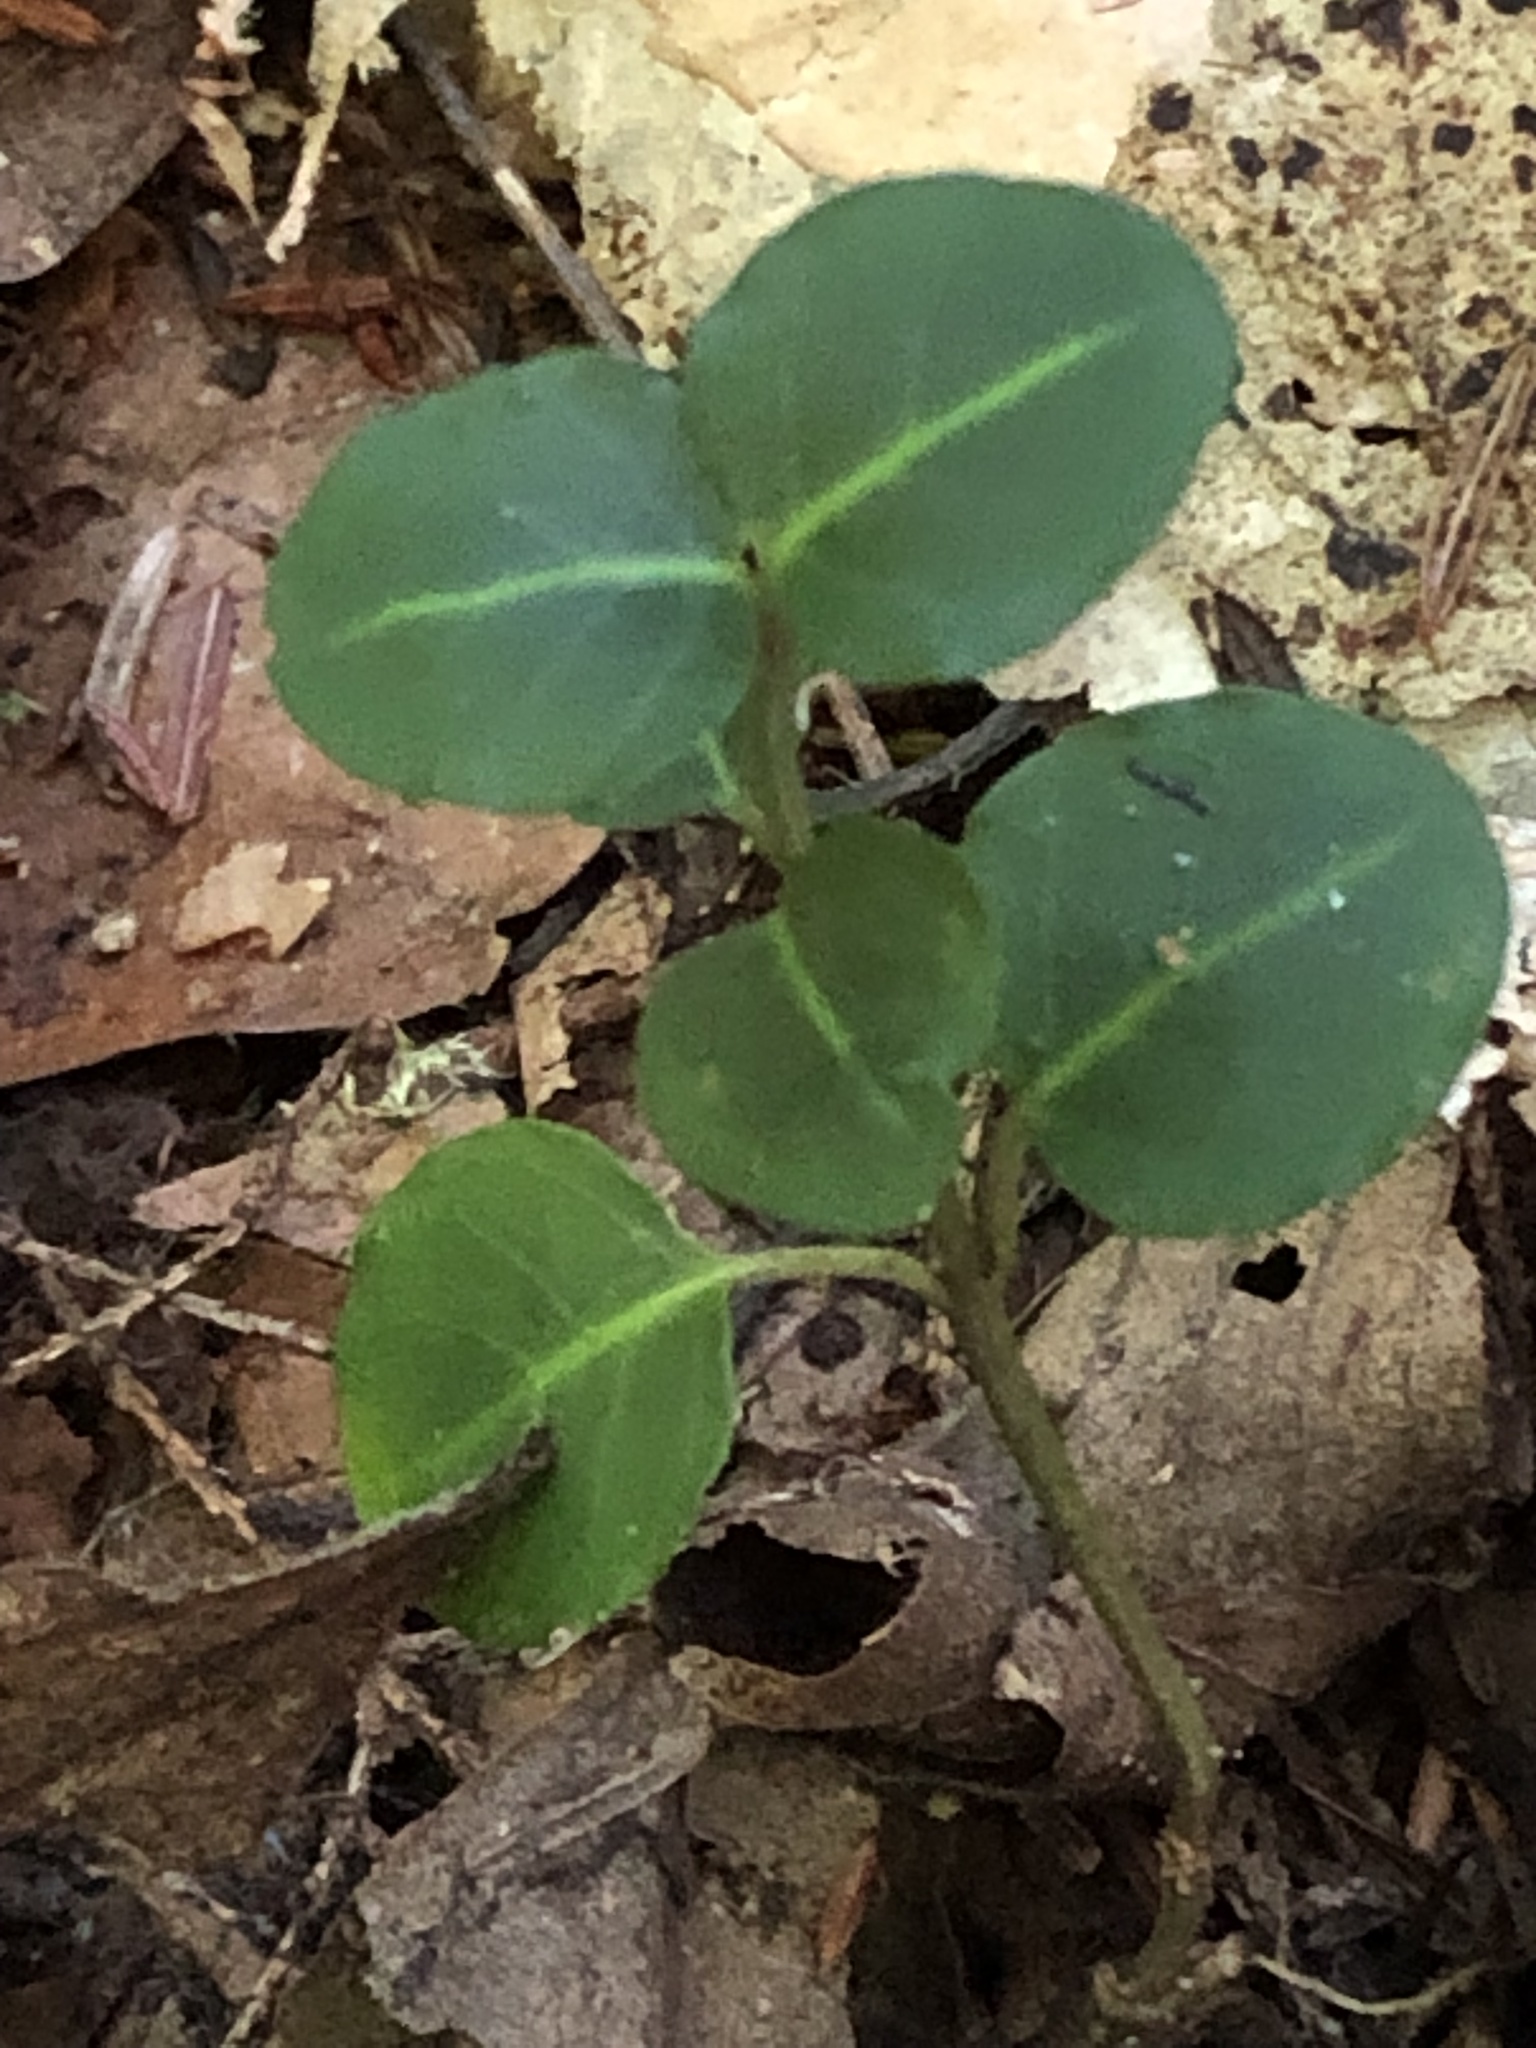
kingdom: Plantae
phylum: Tracheophyta
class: Magnoliopsida
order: Gentianales
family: Rubiaceae
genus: Mitchella
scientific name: Mitchella repens
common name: Partridge-berry
